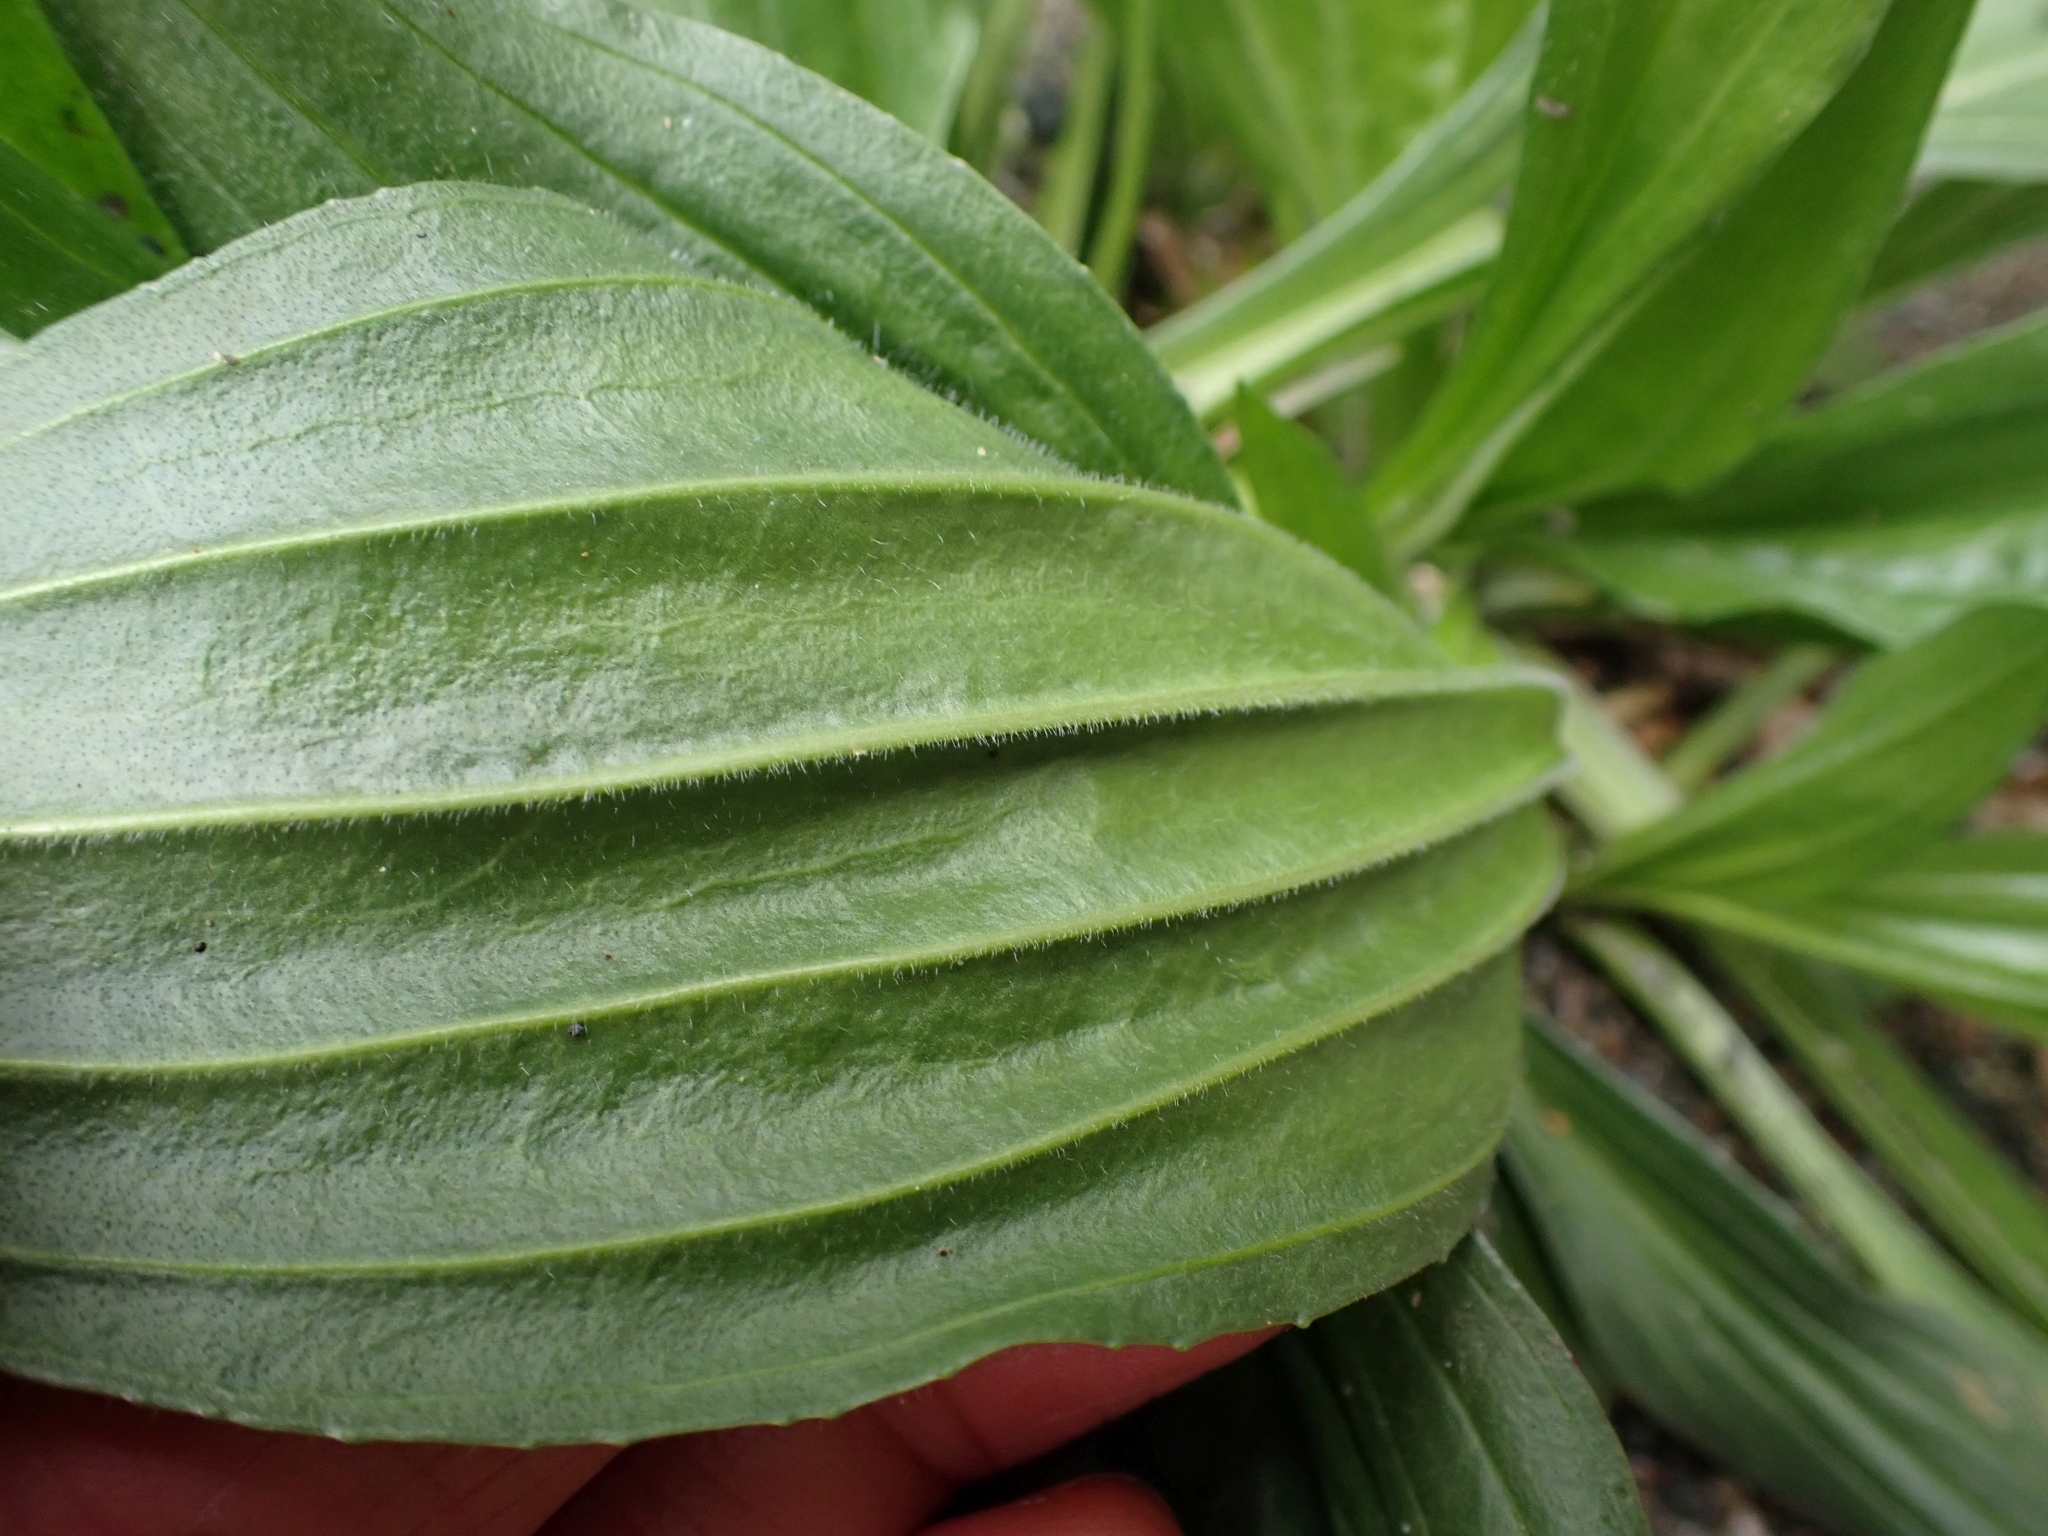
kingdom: Plantae
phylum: Tracheophyta
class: Magnoliopsida
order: Lamiales
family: Plantaginaceae
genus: Plantago
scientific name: Plantago lanceolata
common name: Ribwort plantain
